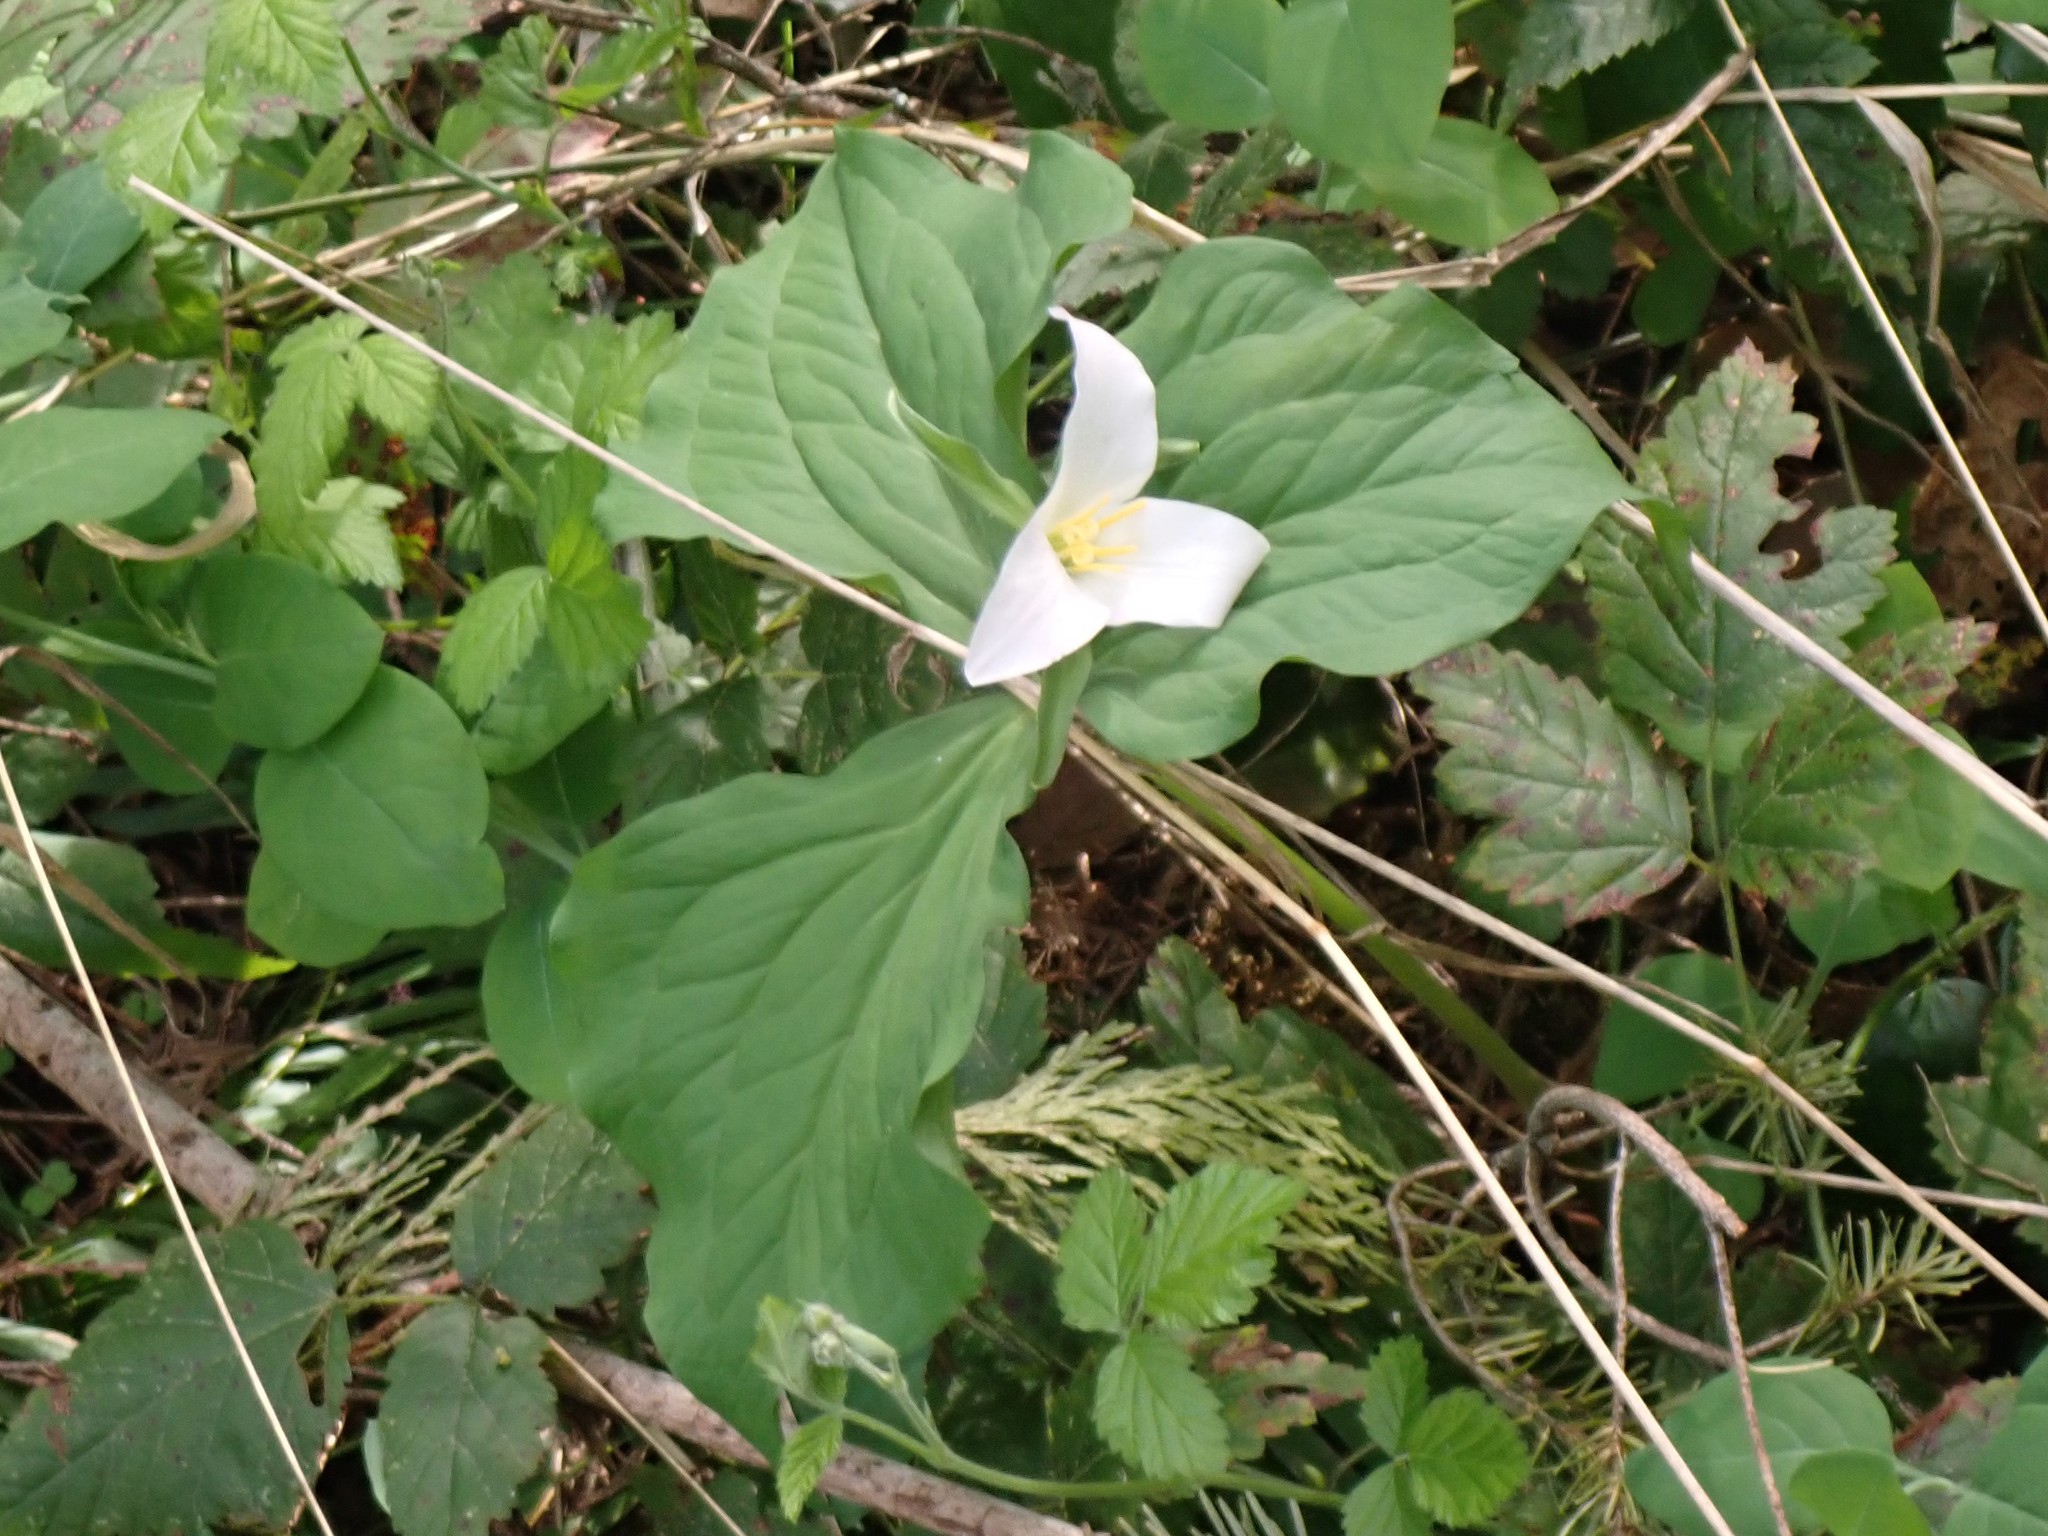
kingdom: Plantae
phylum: Tracheophyta
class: Liliopsida
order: Liliales
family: Melanthiaceae
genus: Trillium
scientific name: Trillium ovatum
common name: Pacific trillium
